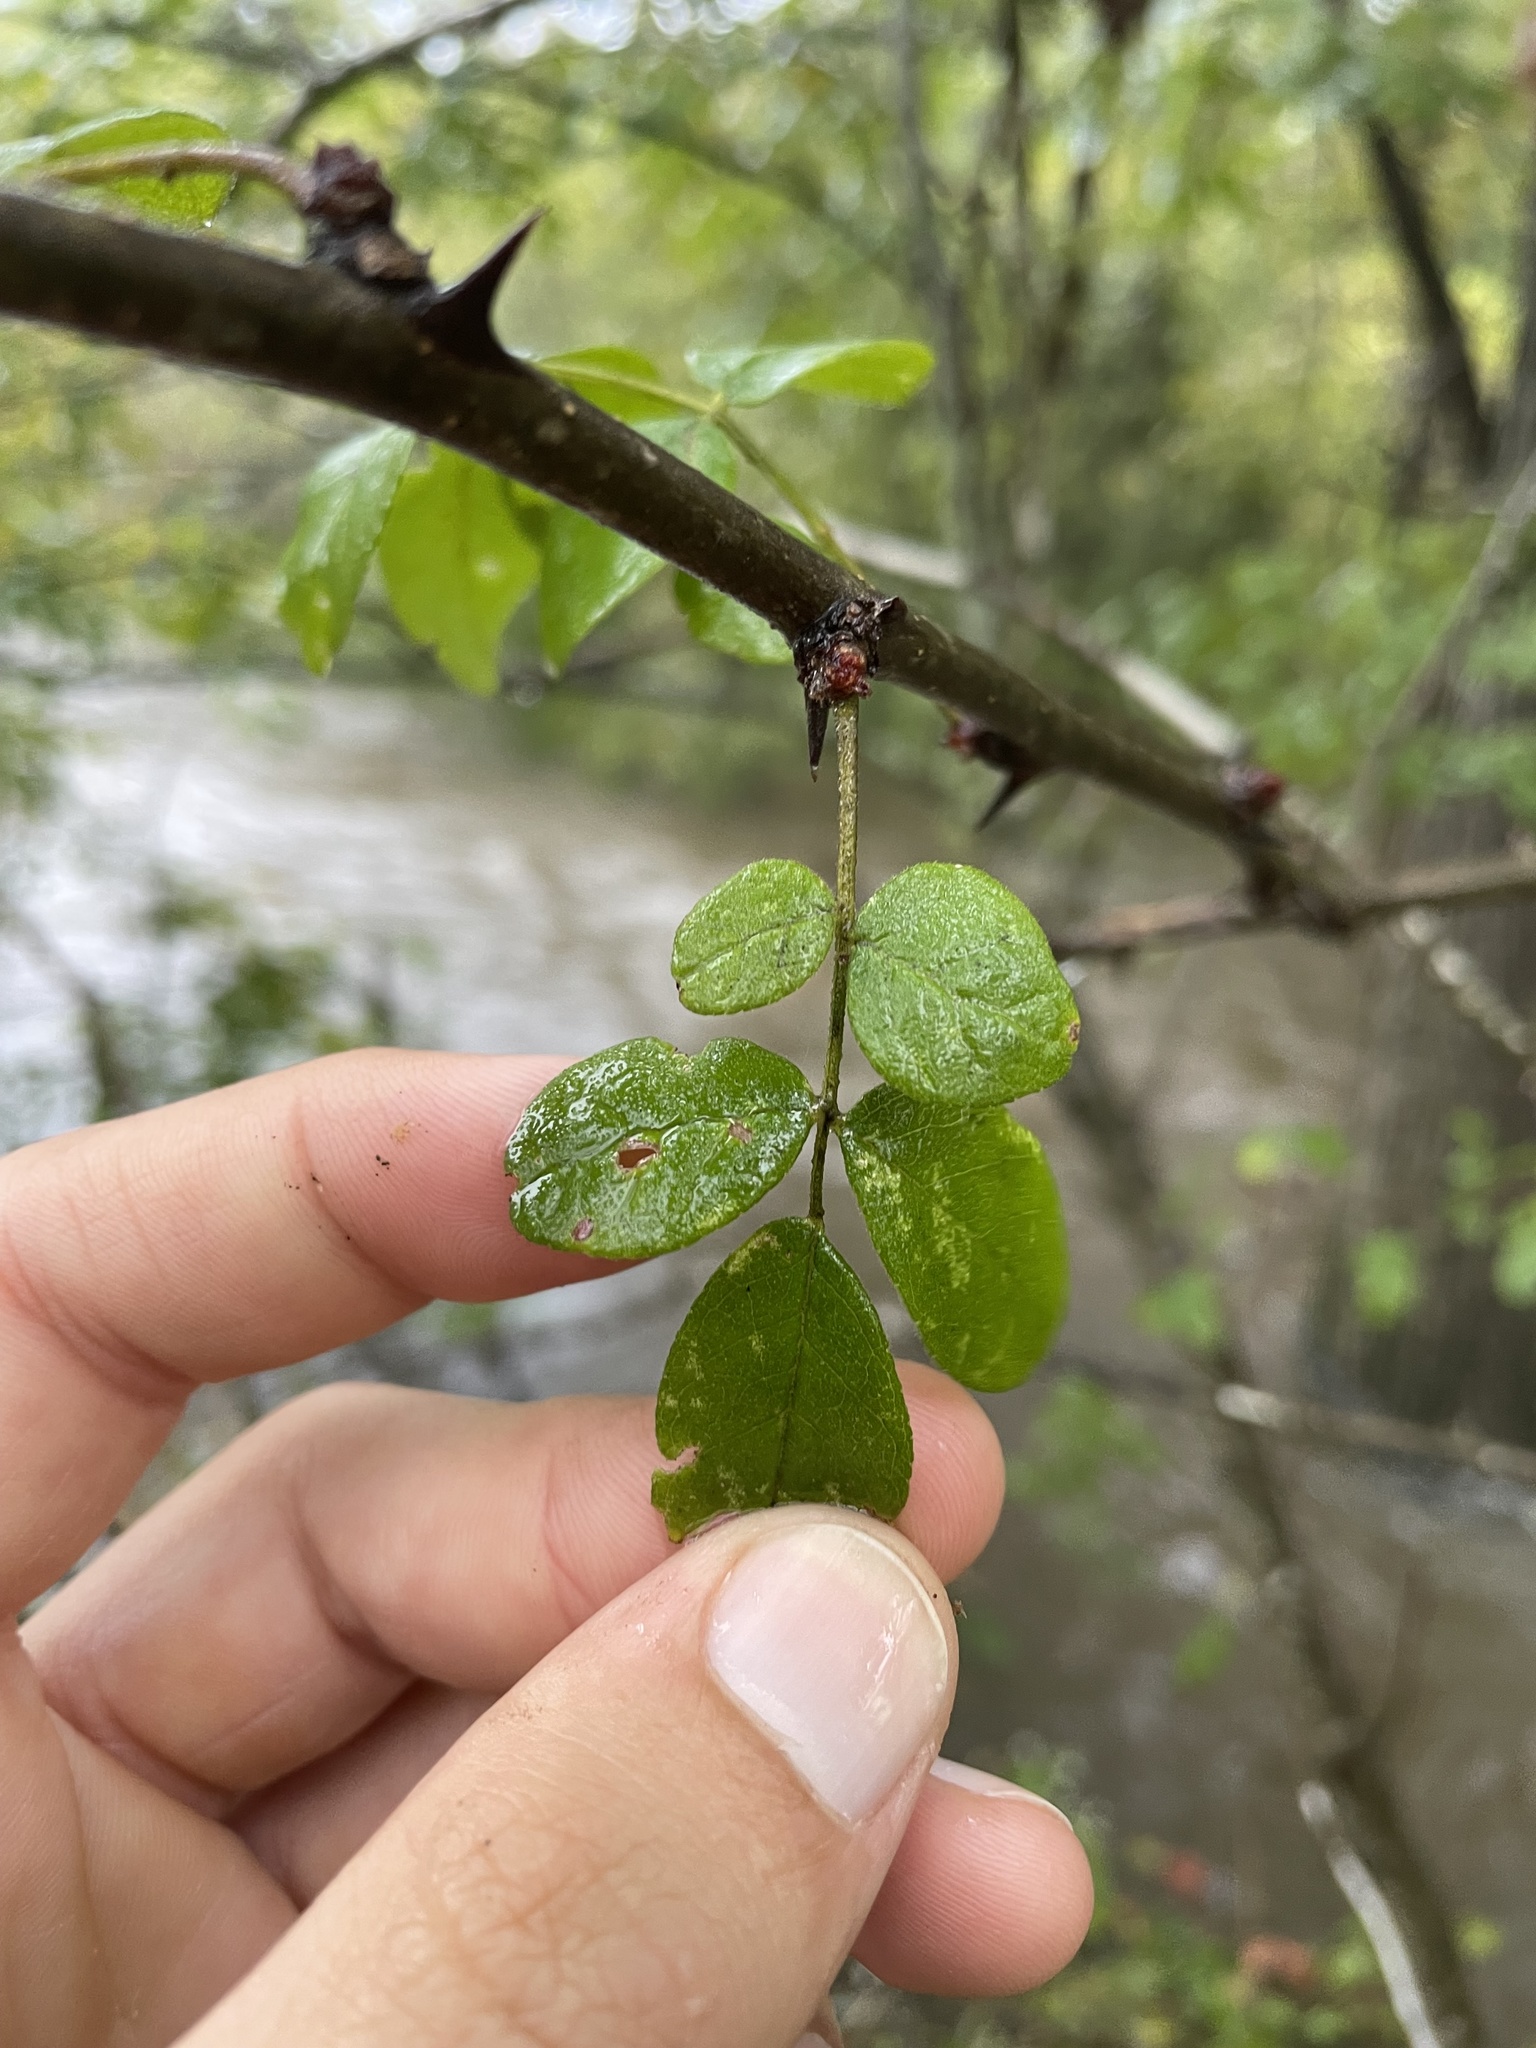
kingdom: Plantae
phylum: Tracheophyta
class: Magnoliopsida
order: Sapindales
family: Rutaceae
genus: Zanthoxylum
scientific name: Zanthoxylum americanum
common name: Northern prickly-ash
